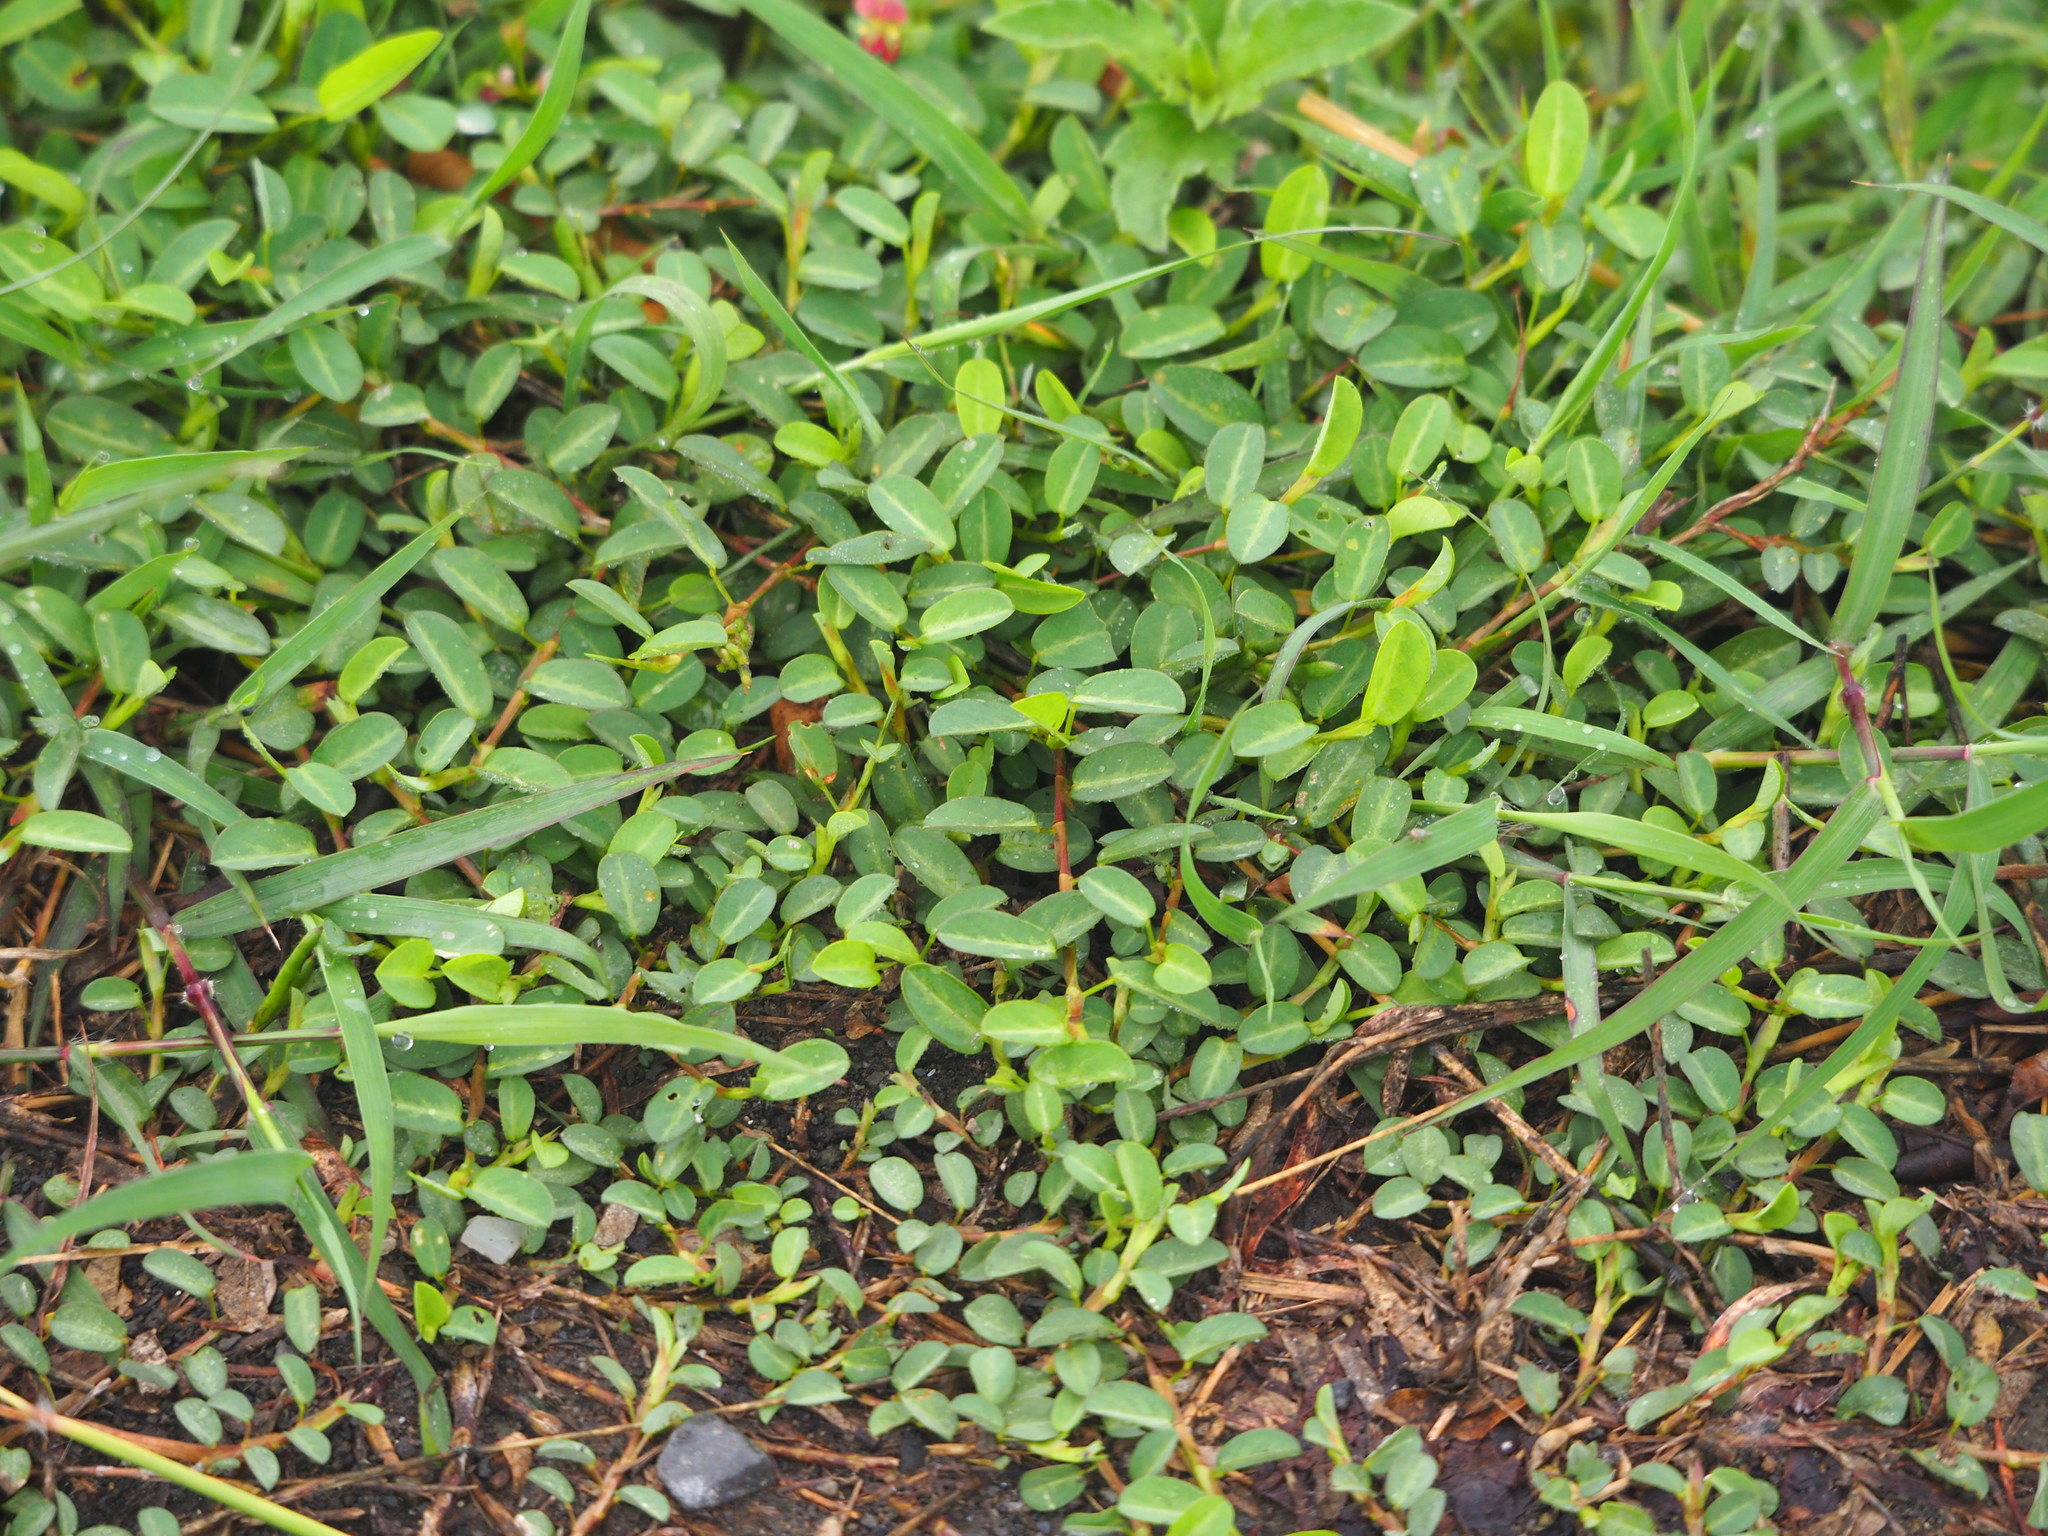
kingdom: Plantae
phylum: Tracheophyta
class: Magnoliopsida
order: Fabales
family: Fabaceae
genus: Alysicarpus
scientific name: Alysicarpus vaginalis
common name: White moneywort
